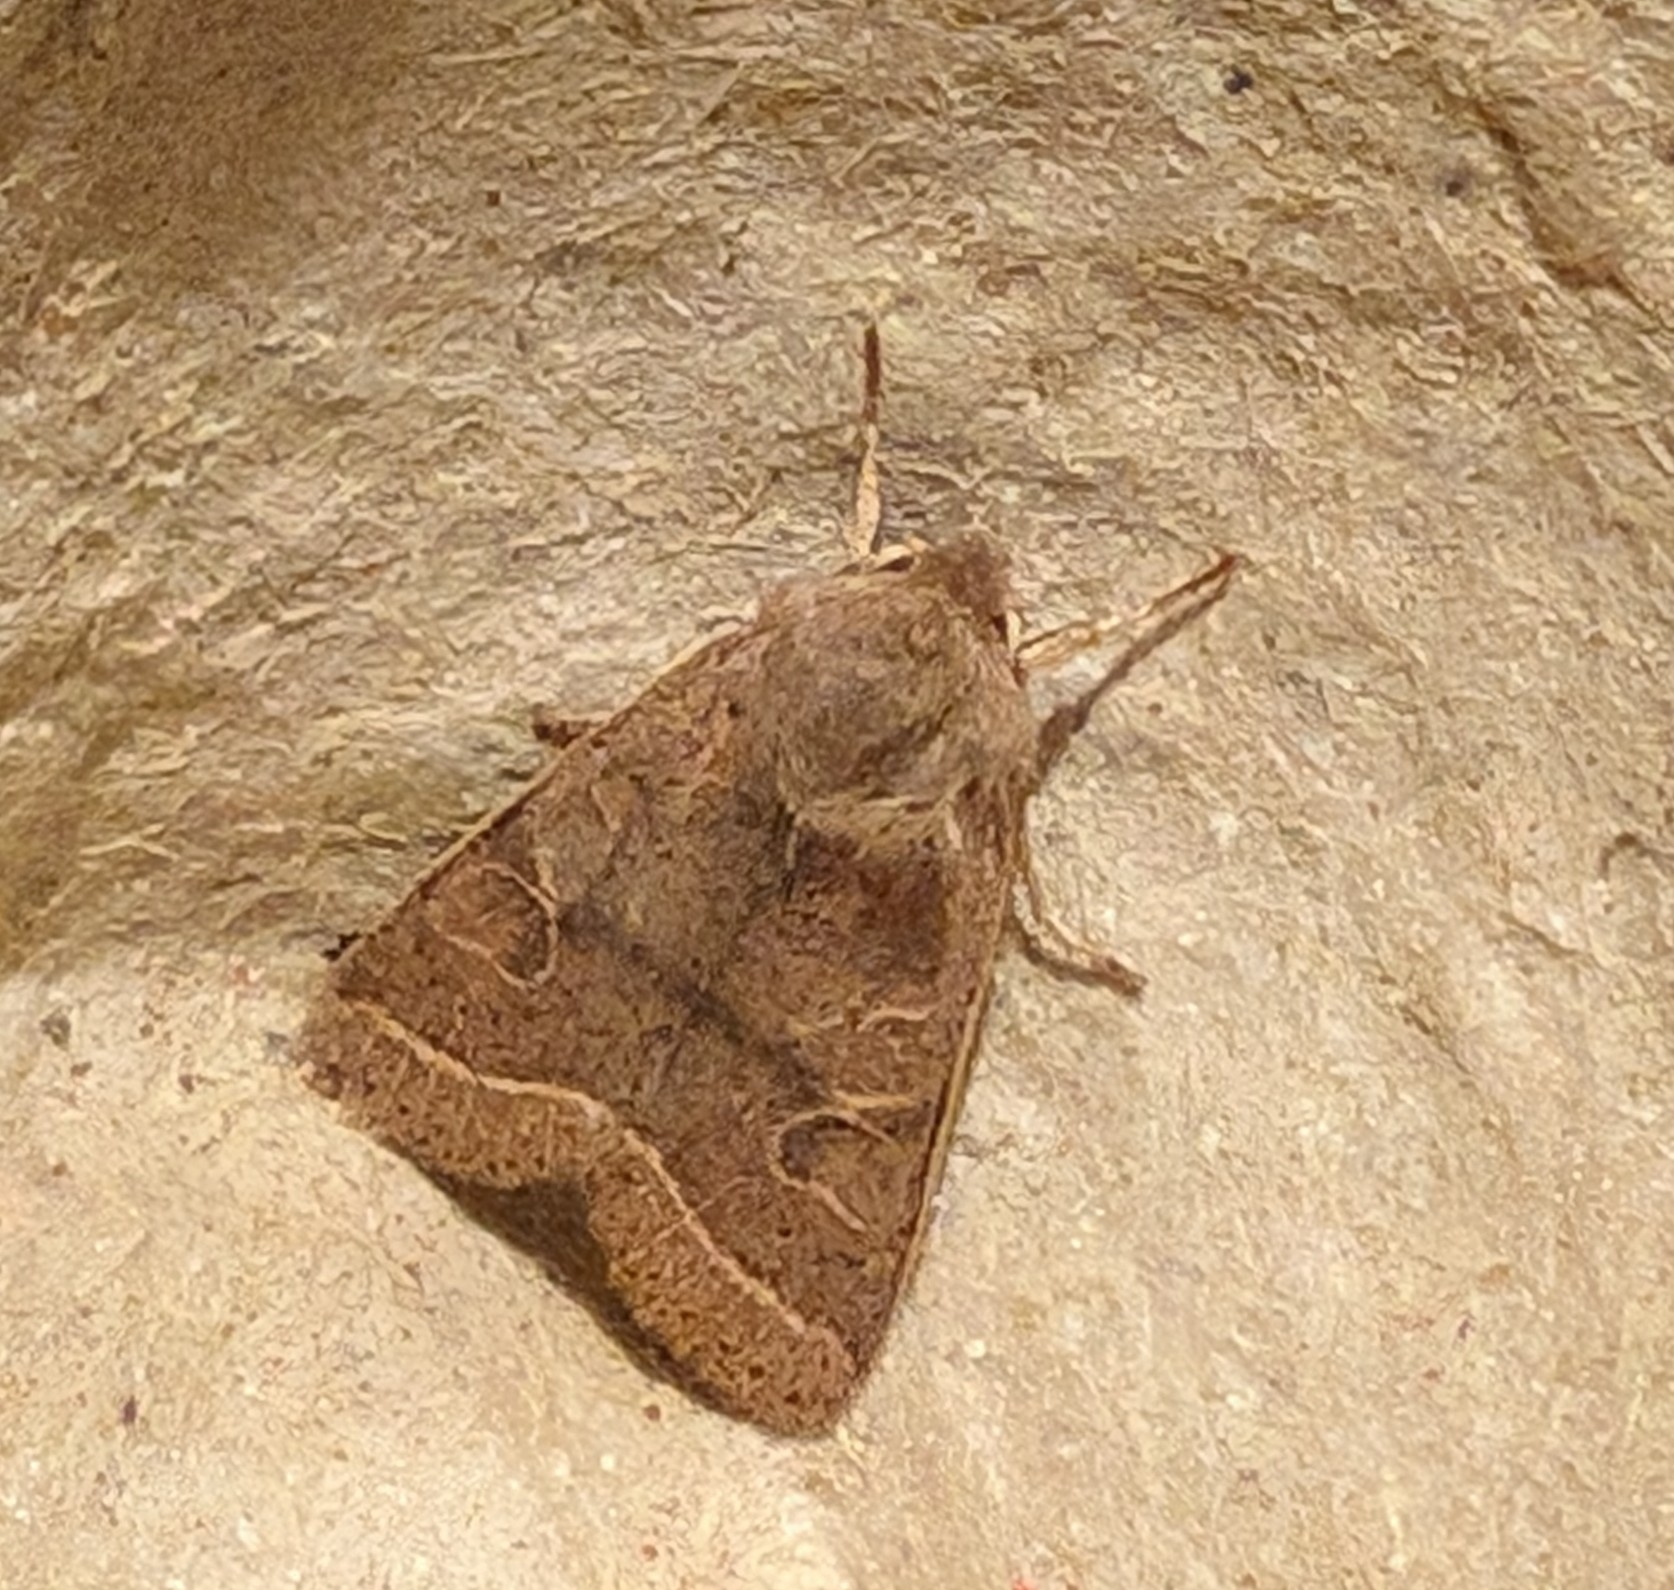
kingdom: Animalia
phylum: Arthropoda
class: Insecta
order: Lepidoptera
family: Noctuidae
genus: Orthosia
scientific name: Orthosia cerasi
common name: Common quaker
